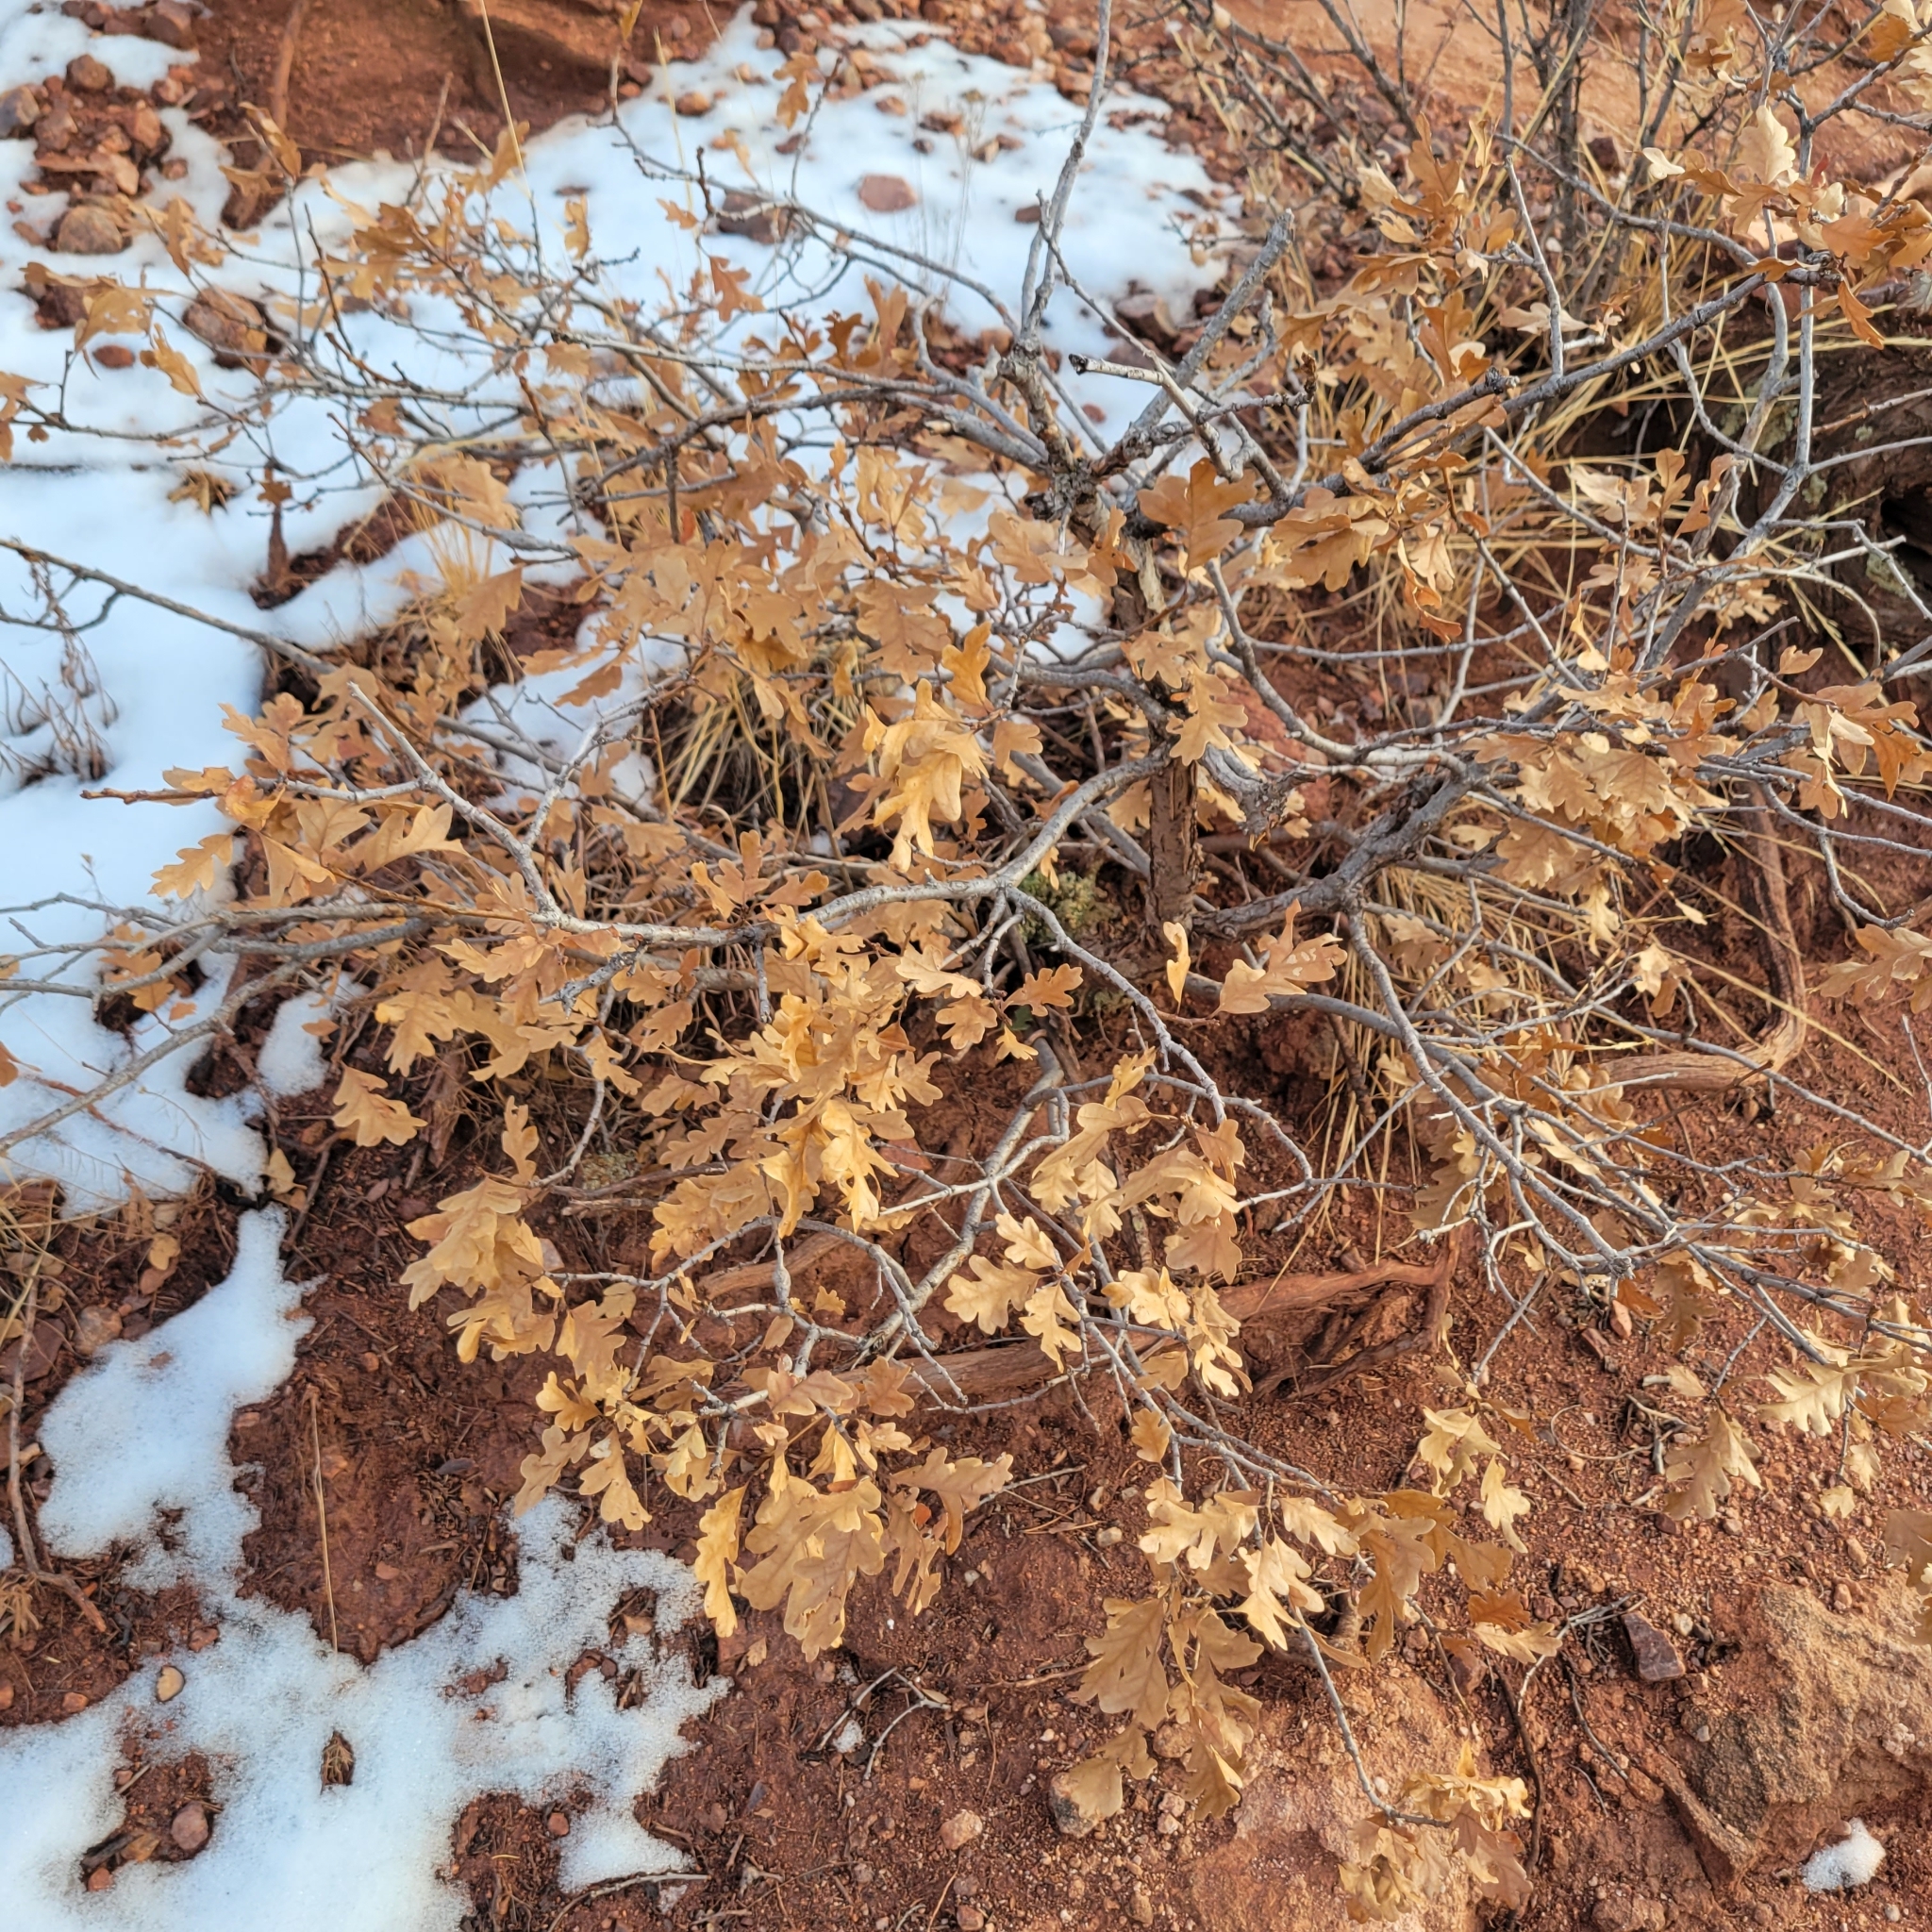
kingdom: Plantae
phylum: Tracheophyta
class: Magnoliopsida
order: Fagales
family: Fagaceae
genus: Quercus
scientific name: Quercus gambelii
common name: Gambel oak
